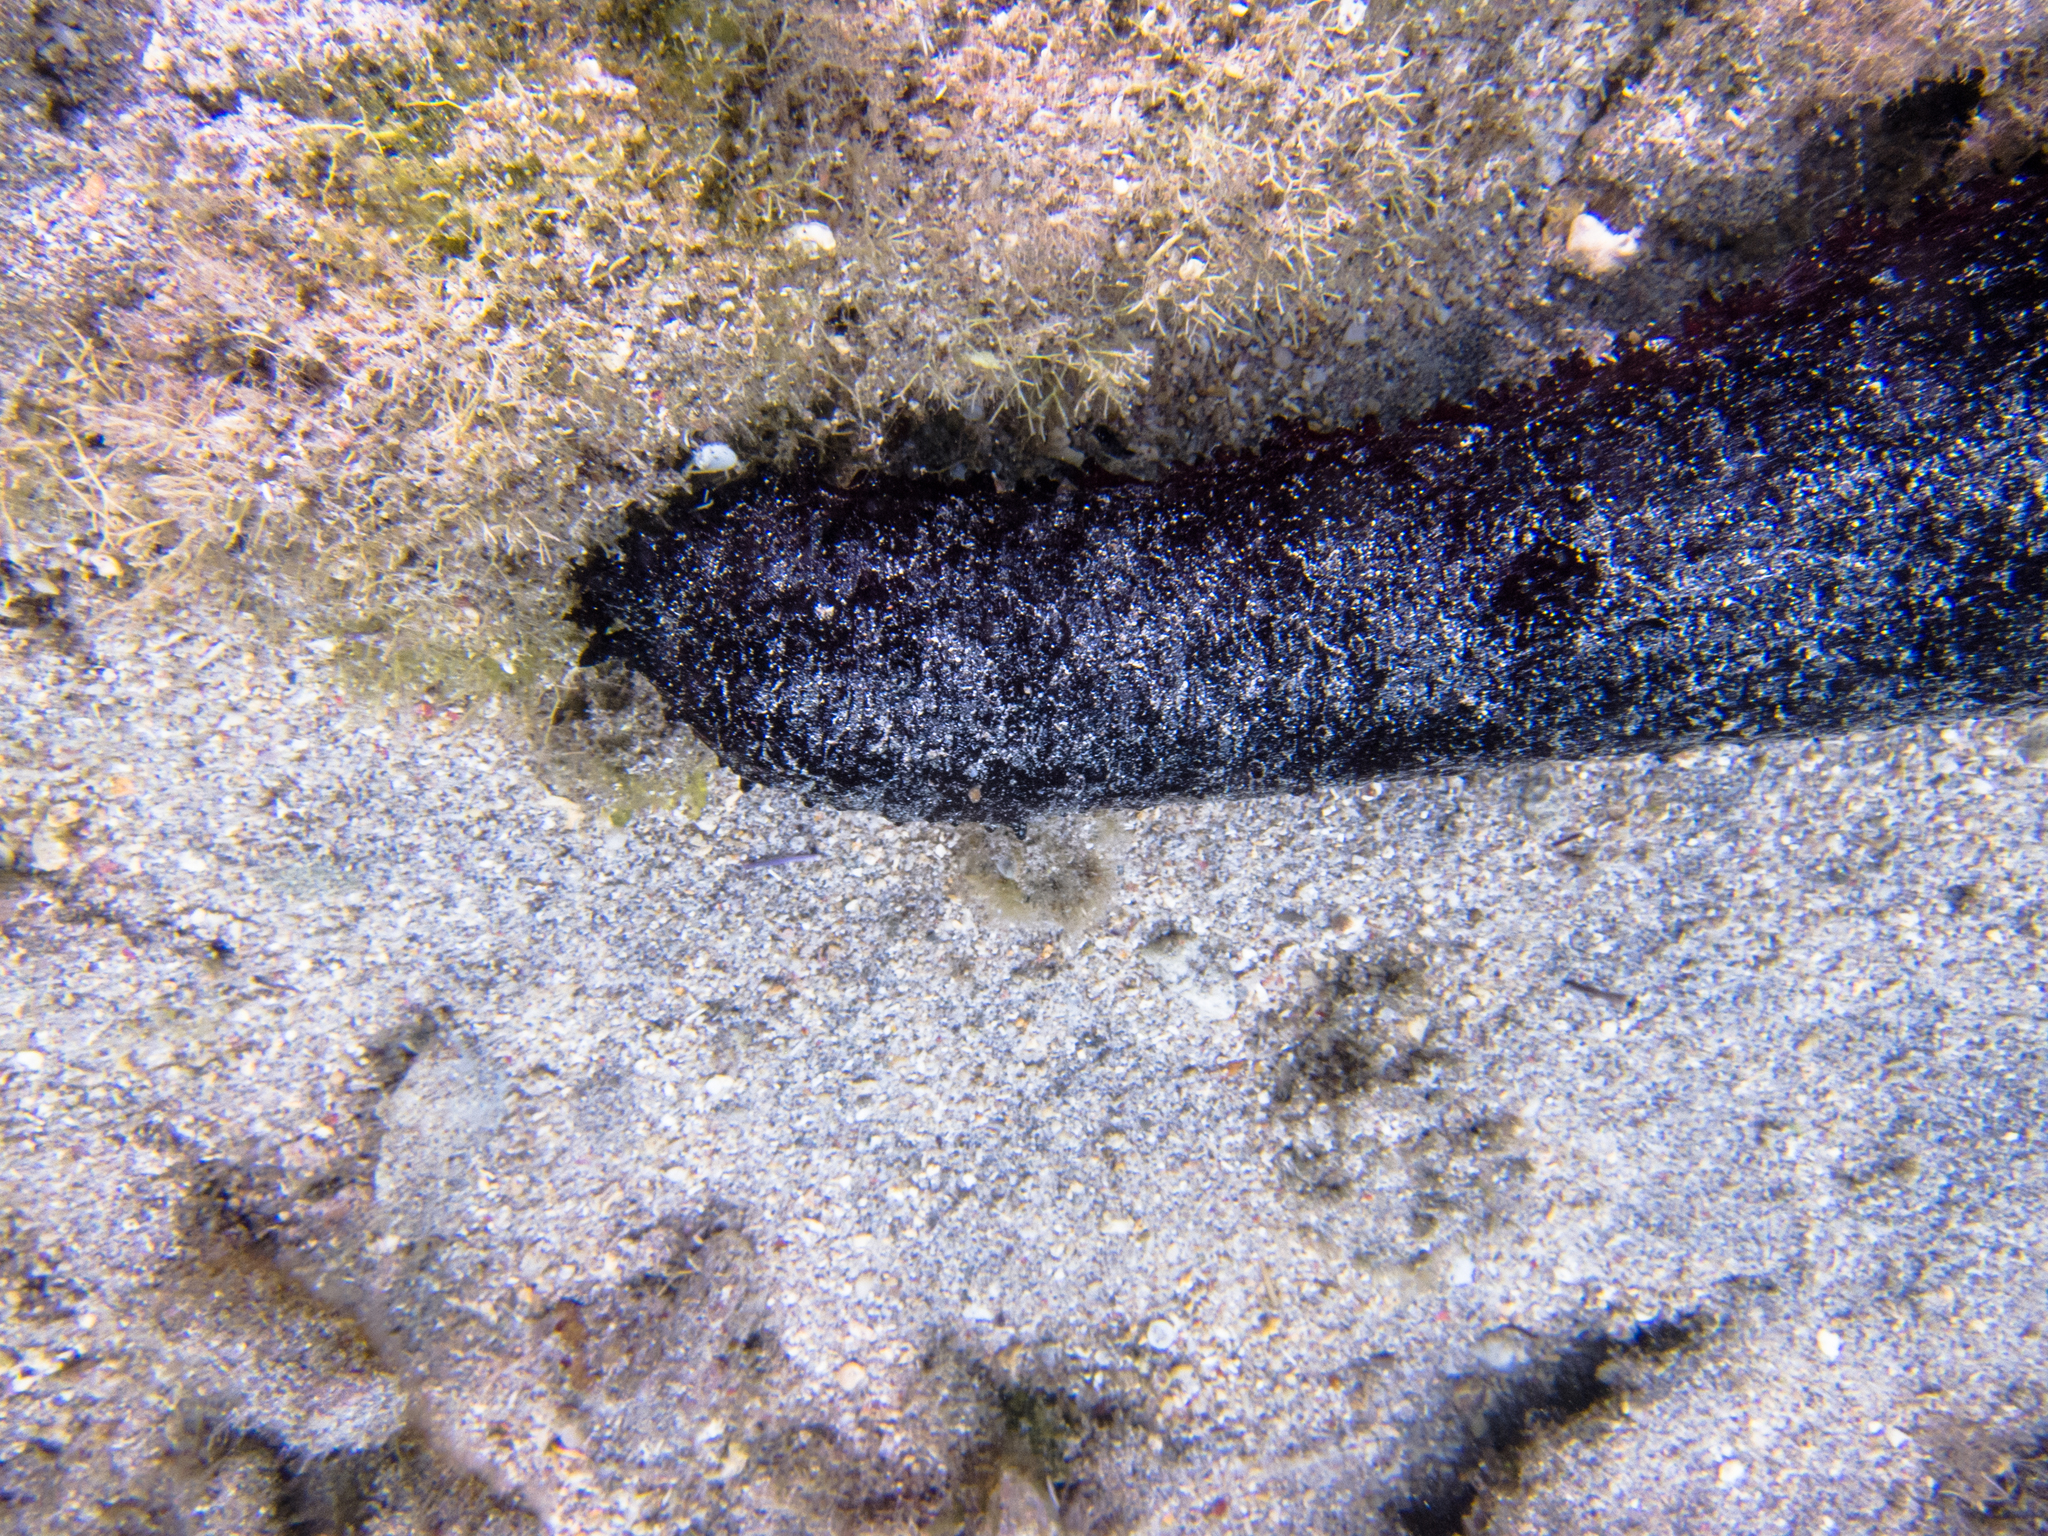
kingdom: Animalia
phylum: Echinodermata
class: Holothuroidea
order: Holothuriida
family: Holothuriidae
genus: Holothuria
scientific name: Holothuria leucospilota
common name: White thread fish
